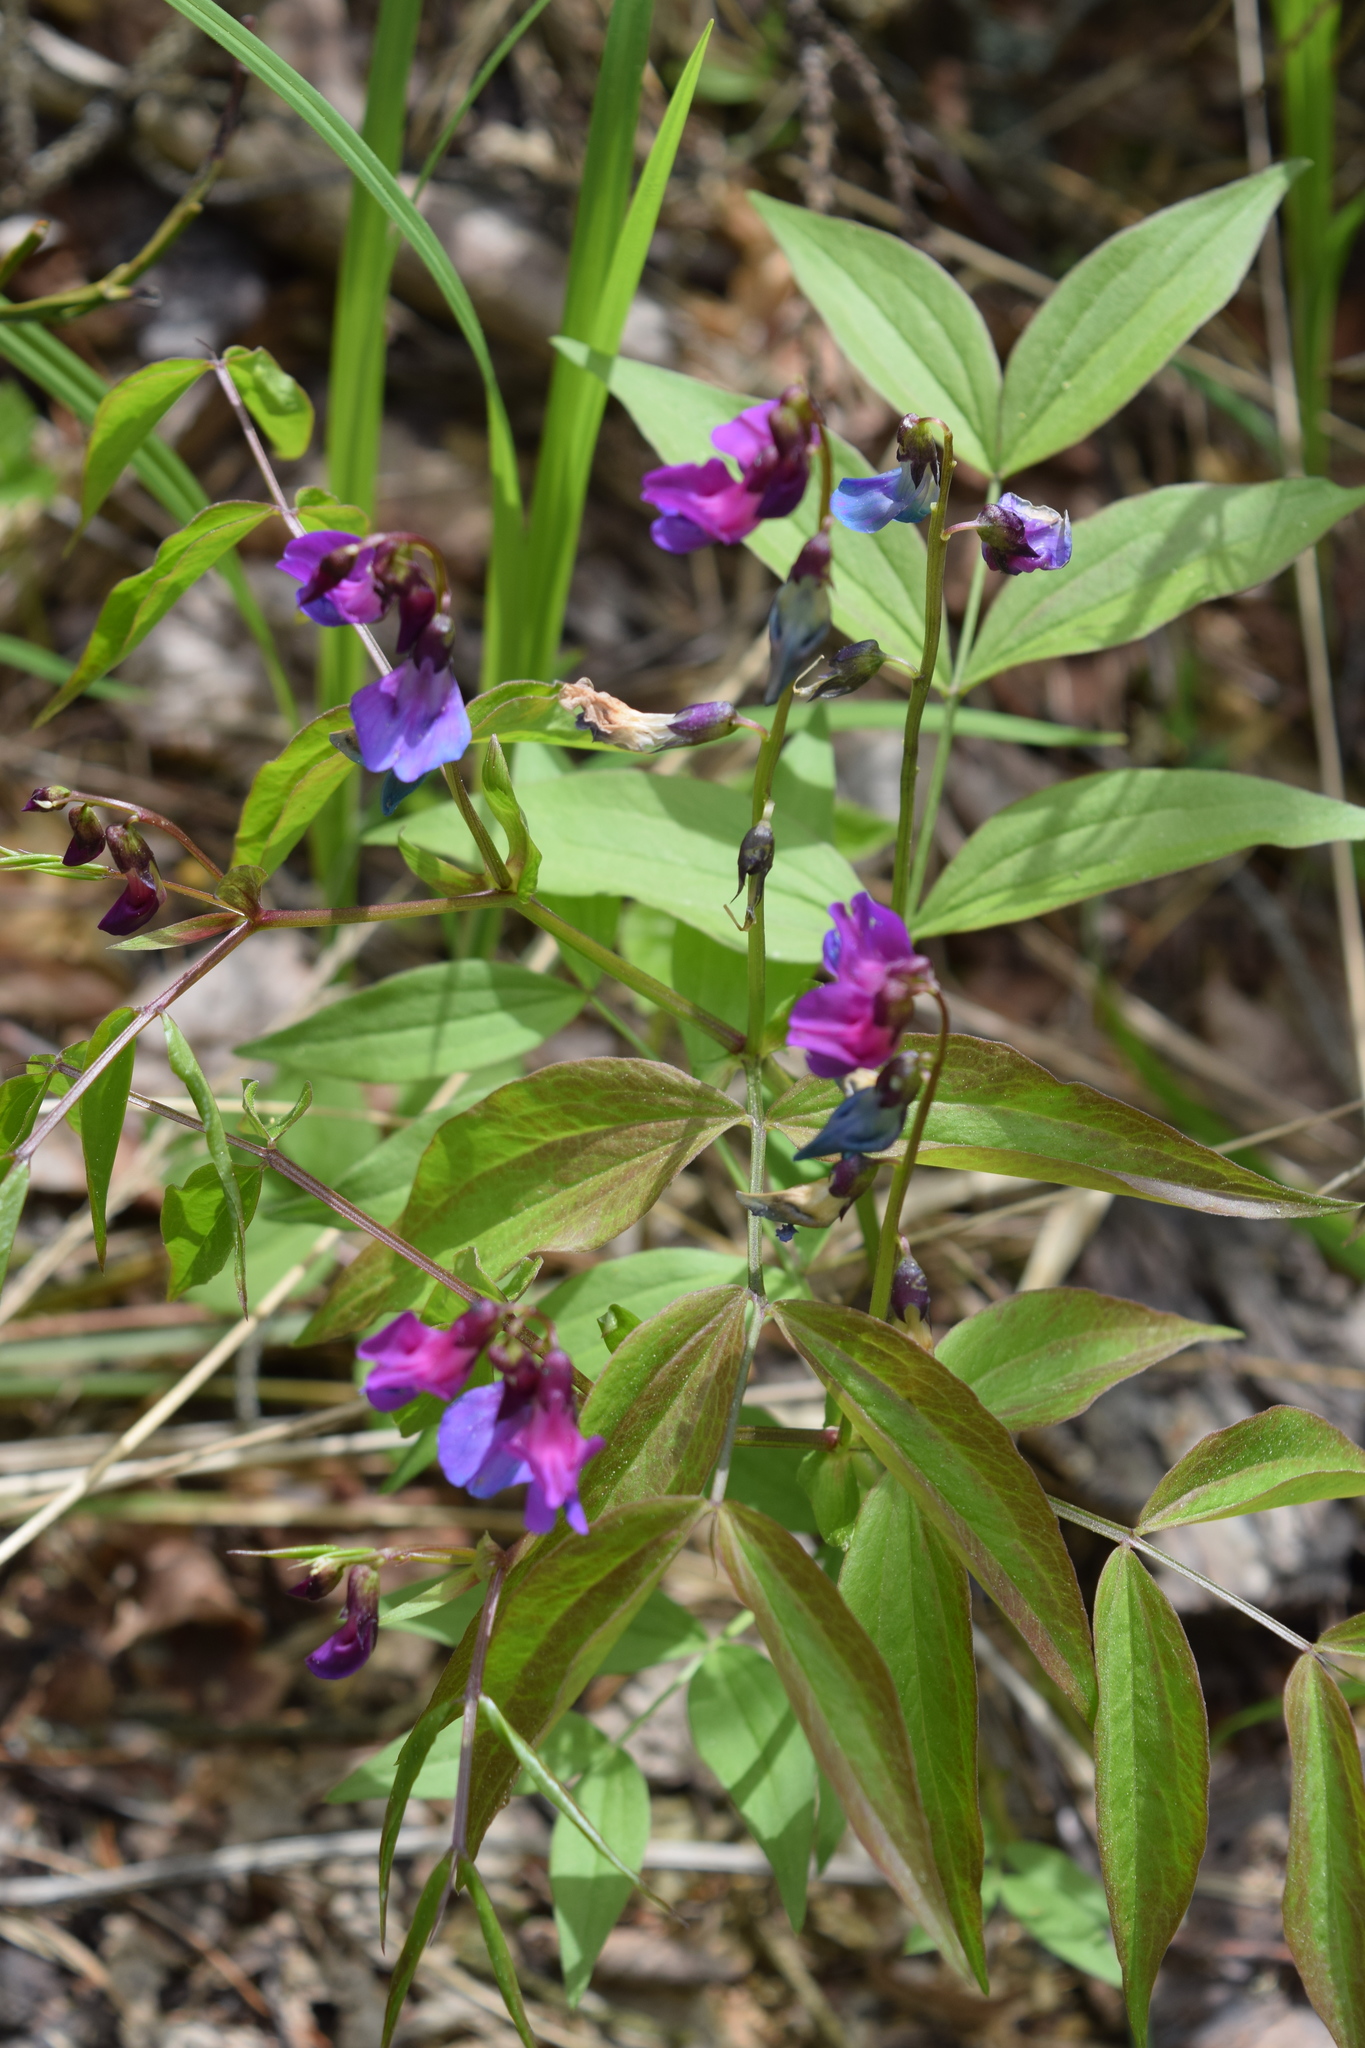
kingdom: Plantae
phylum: Tracheophyta
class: Magnoliopsida
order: Fabales
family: Fabaceae
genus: Lathyrus
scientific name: Lathyrus vernus
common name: Spring pea
